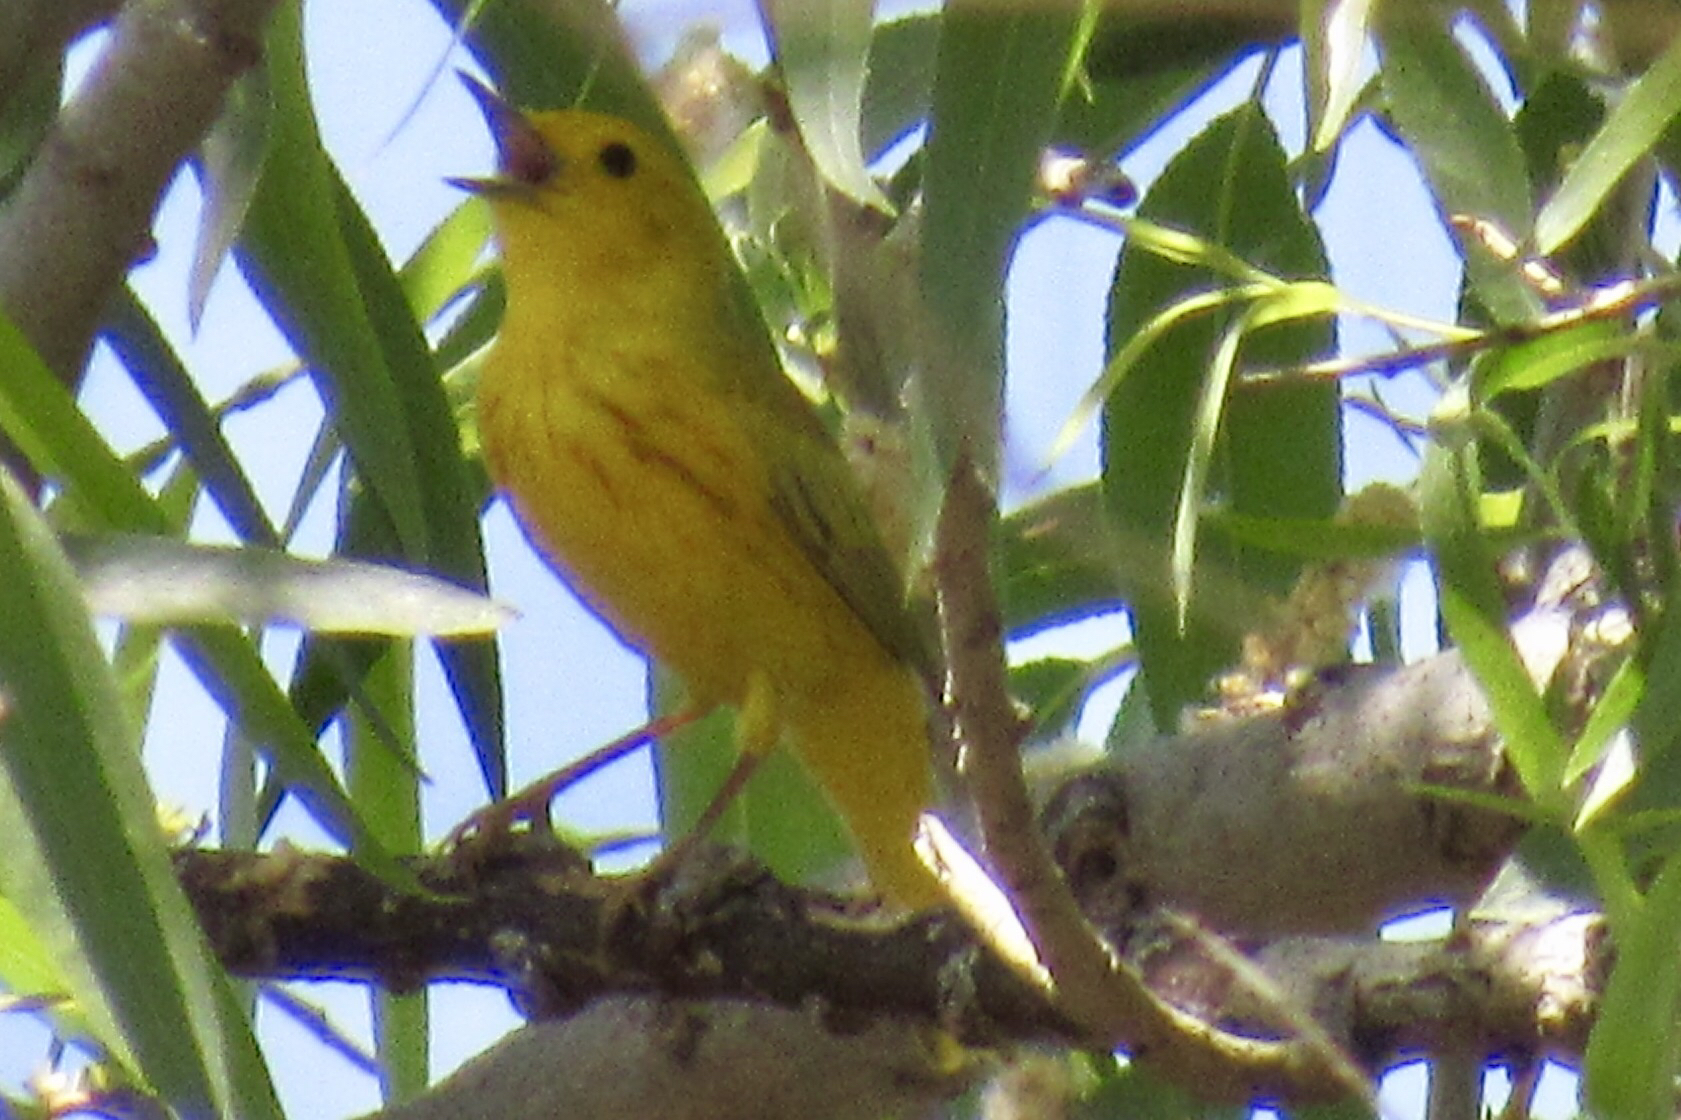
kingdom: Animalia
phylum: Chordata
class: Aves
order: Passeriformes
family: Parulidae
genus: Setophaga
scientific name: Setophaga petechia
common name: Yellow warbler
